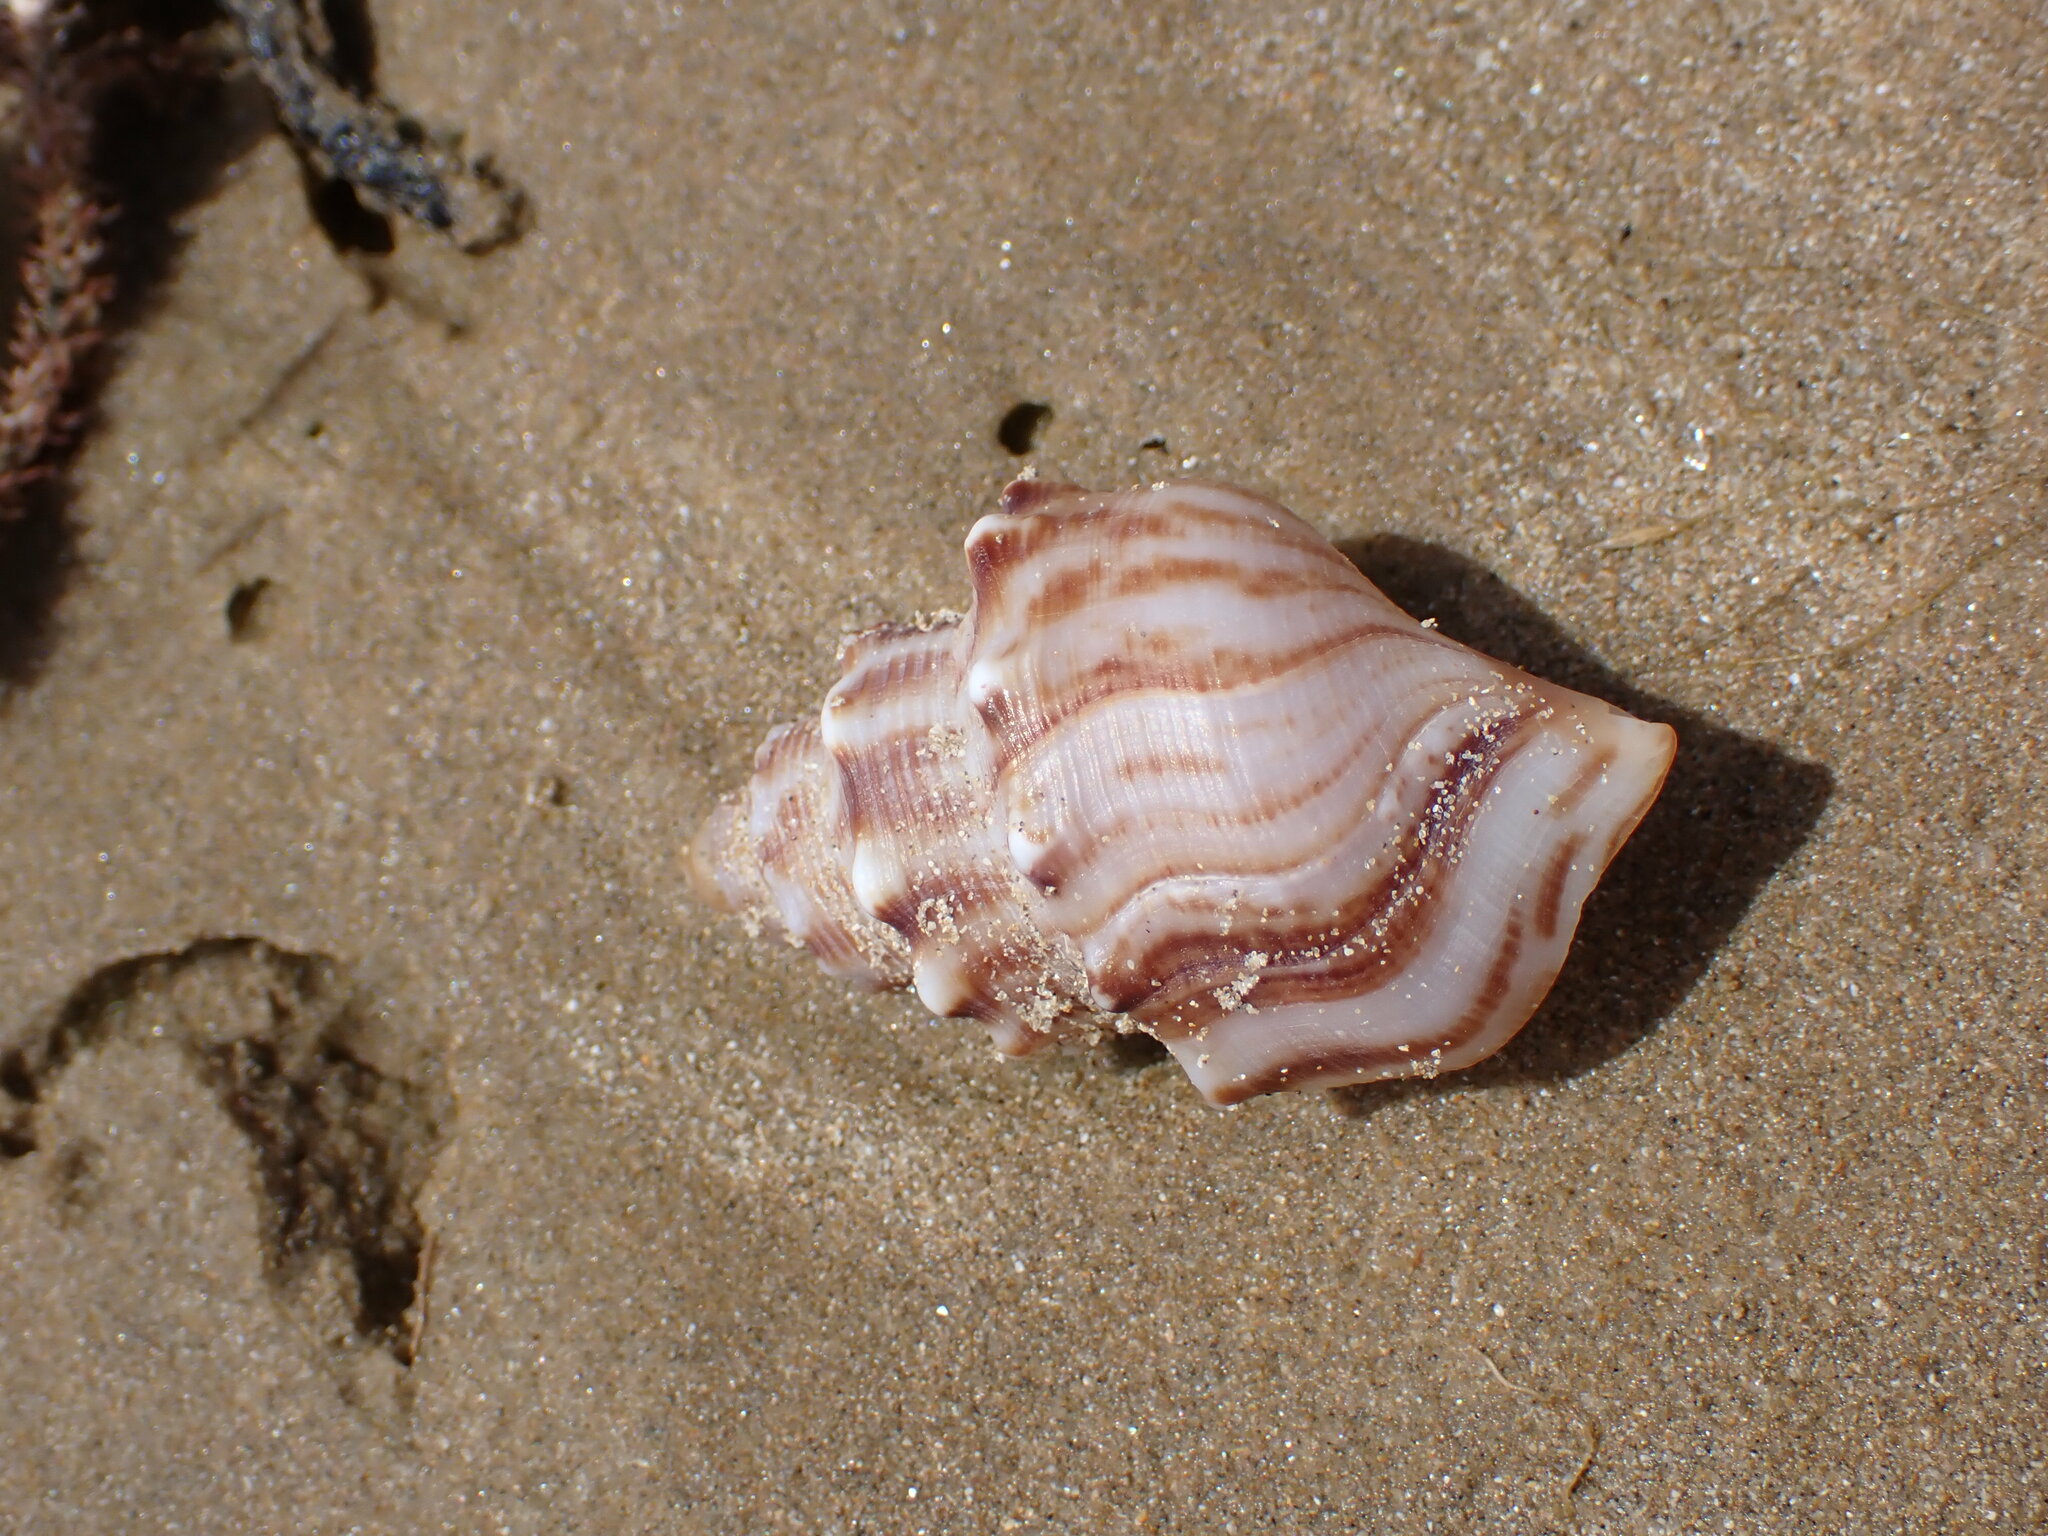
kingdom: Animalia
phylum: Mollusca
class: Gastropoda
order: Littorinimorpha
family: Struthiolariidae
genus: Struthiolaria
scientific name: Struthiolaria papulosa
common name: Large ostrich foot
